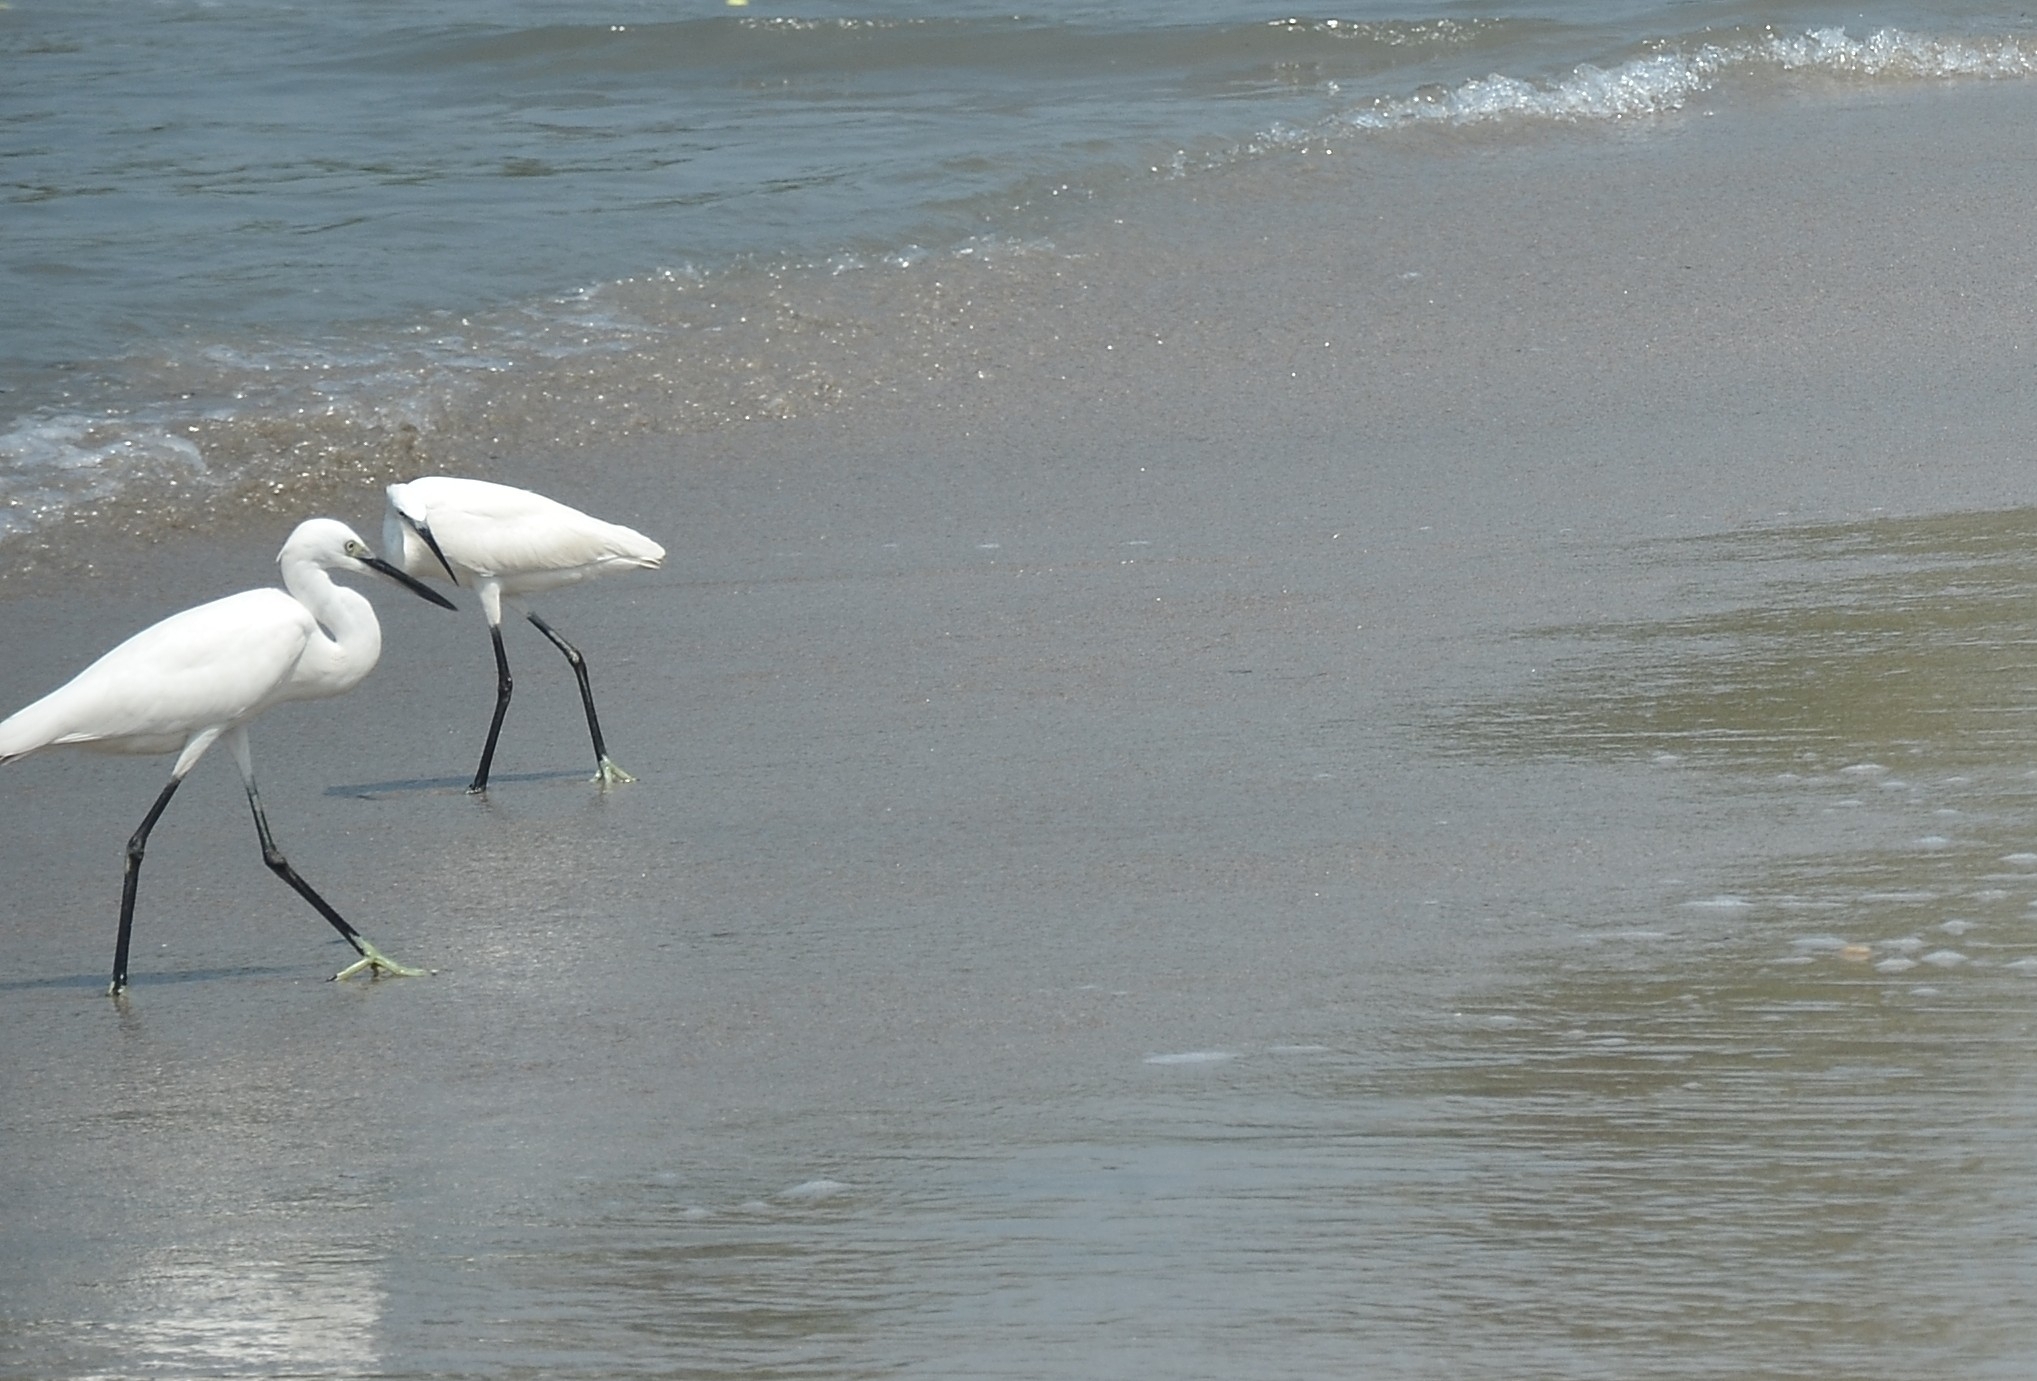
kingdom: Animalia
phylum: Chordata
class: Aves
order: Pelecaniformes
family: Ardeidae
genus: Egretta
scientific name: Egretta garzetta
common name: Little egret
